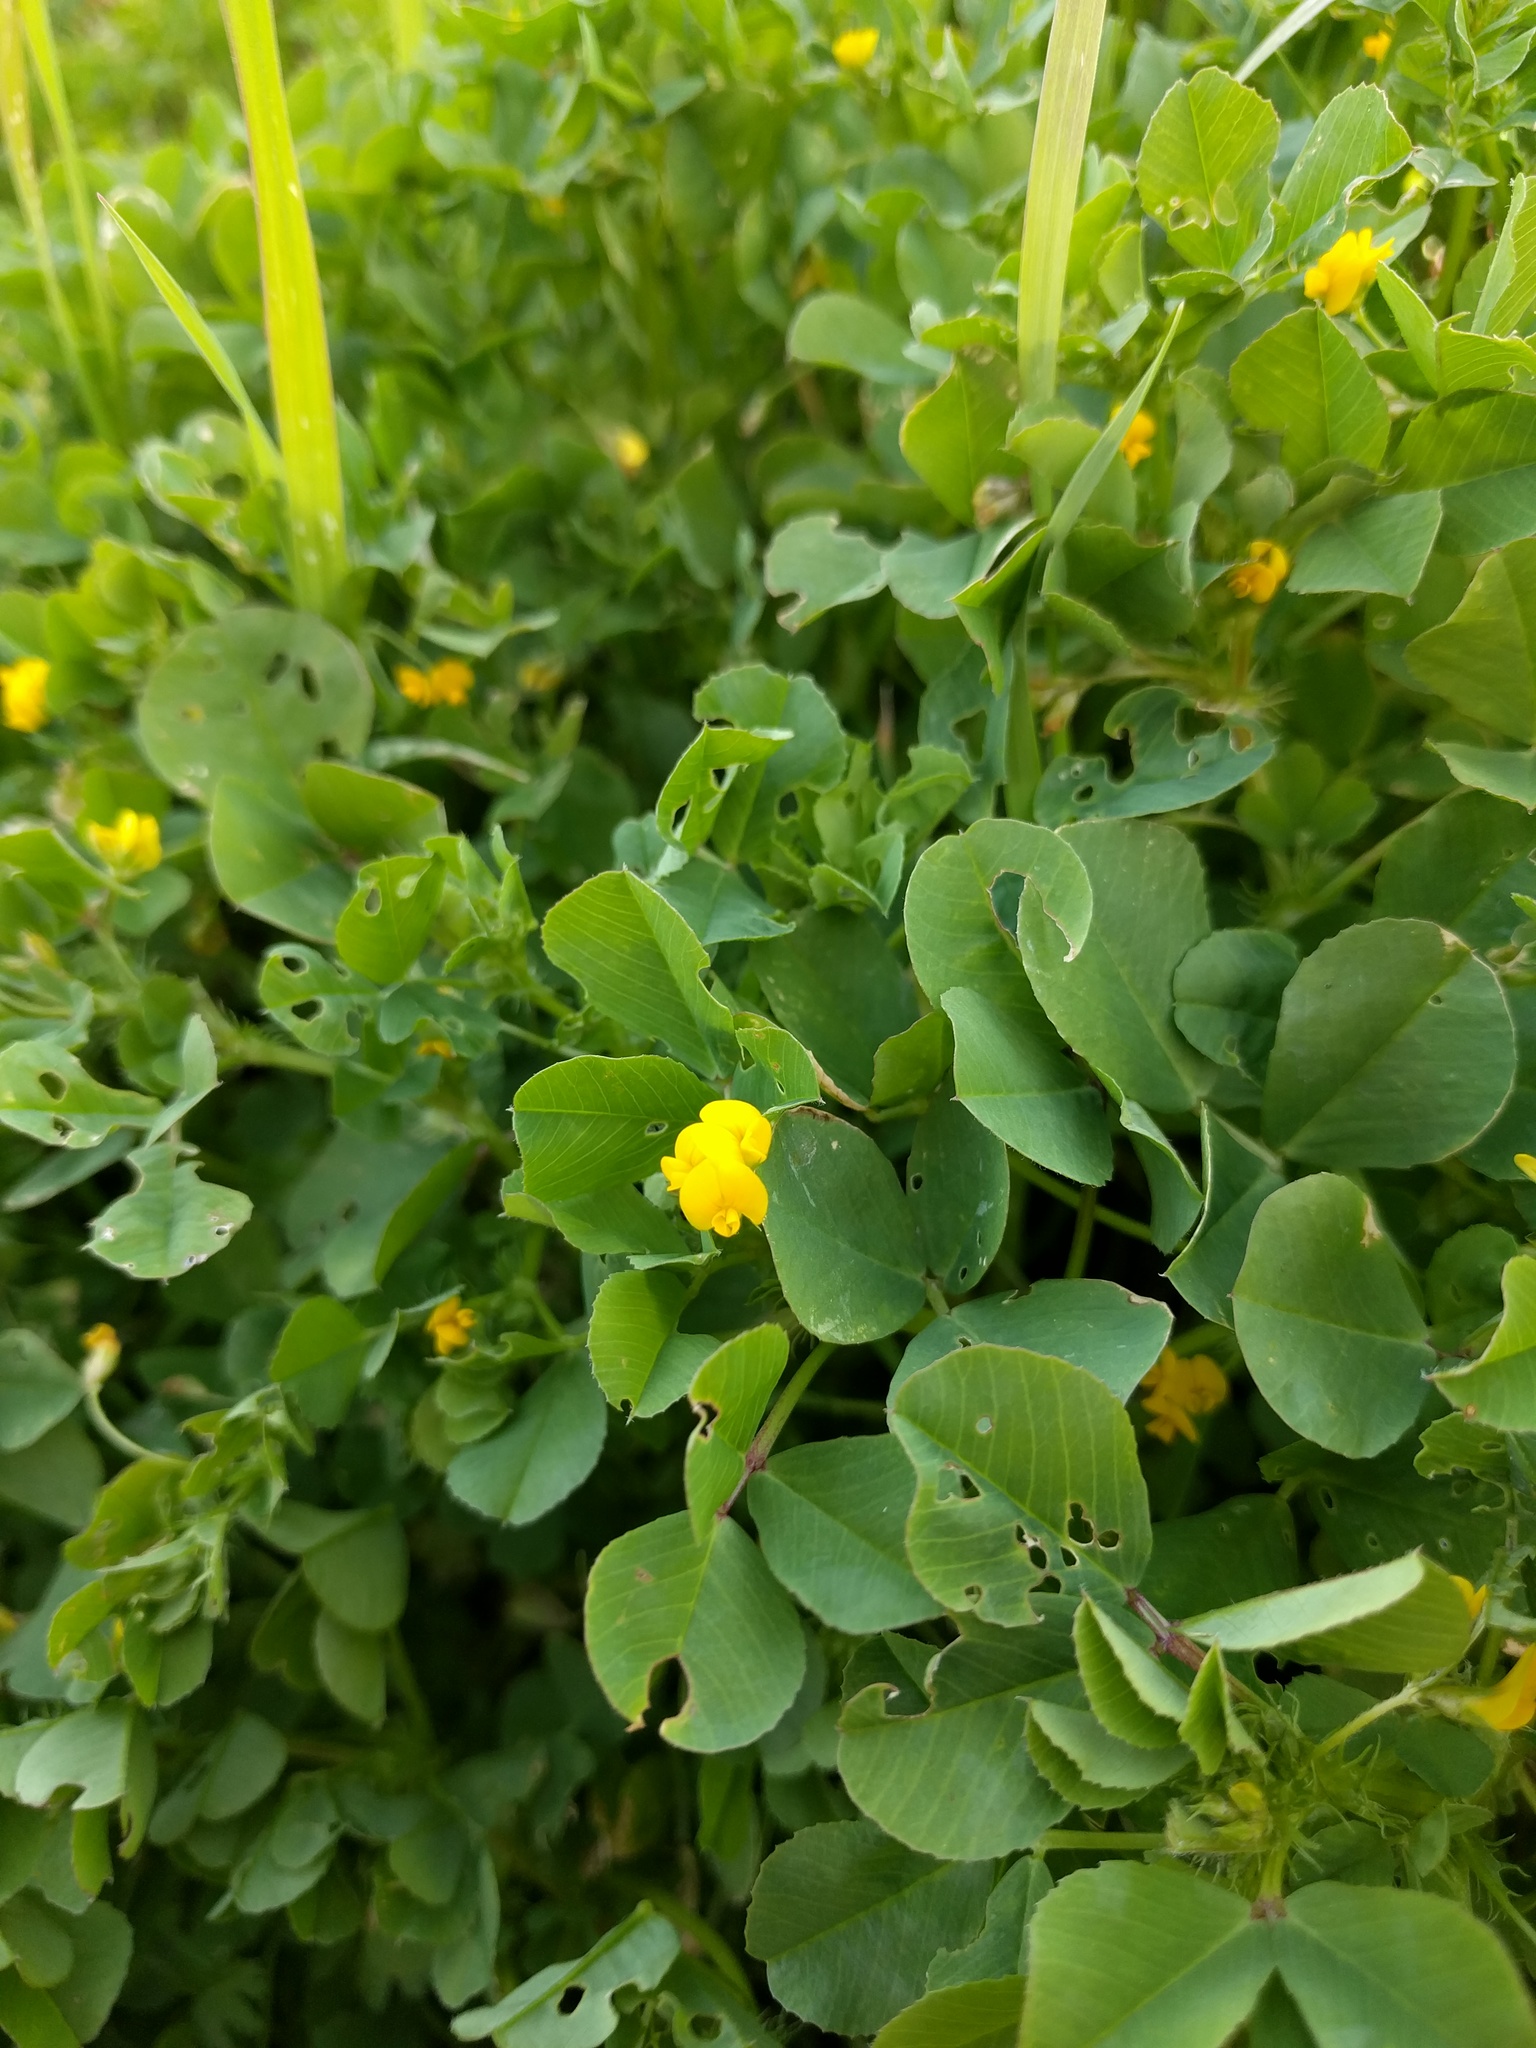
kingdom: Plantae
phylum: Tracheophyta
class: Magnoliopsida
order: Fabales
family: Fabaceae
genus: Medicago
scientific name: Medicago polymorpha
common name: Burclover
